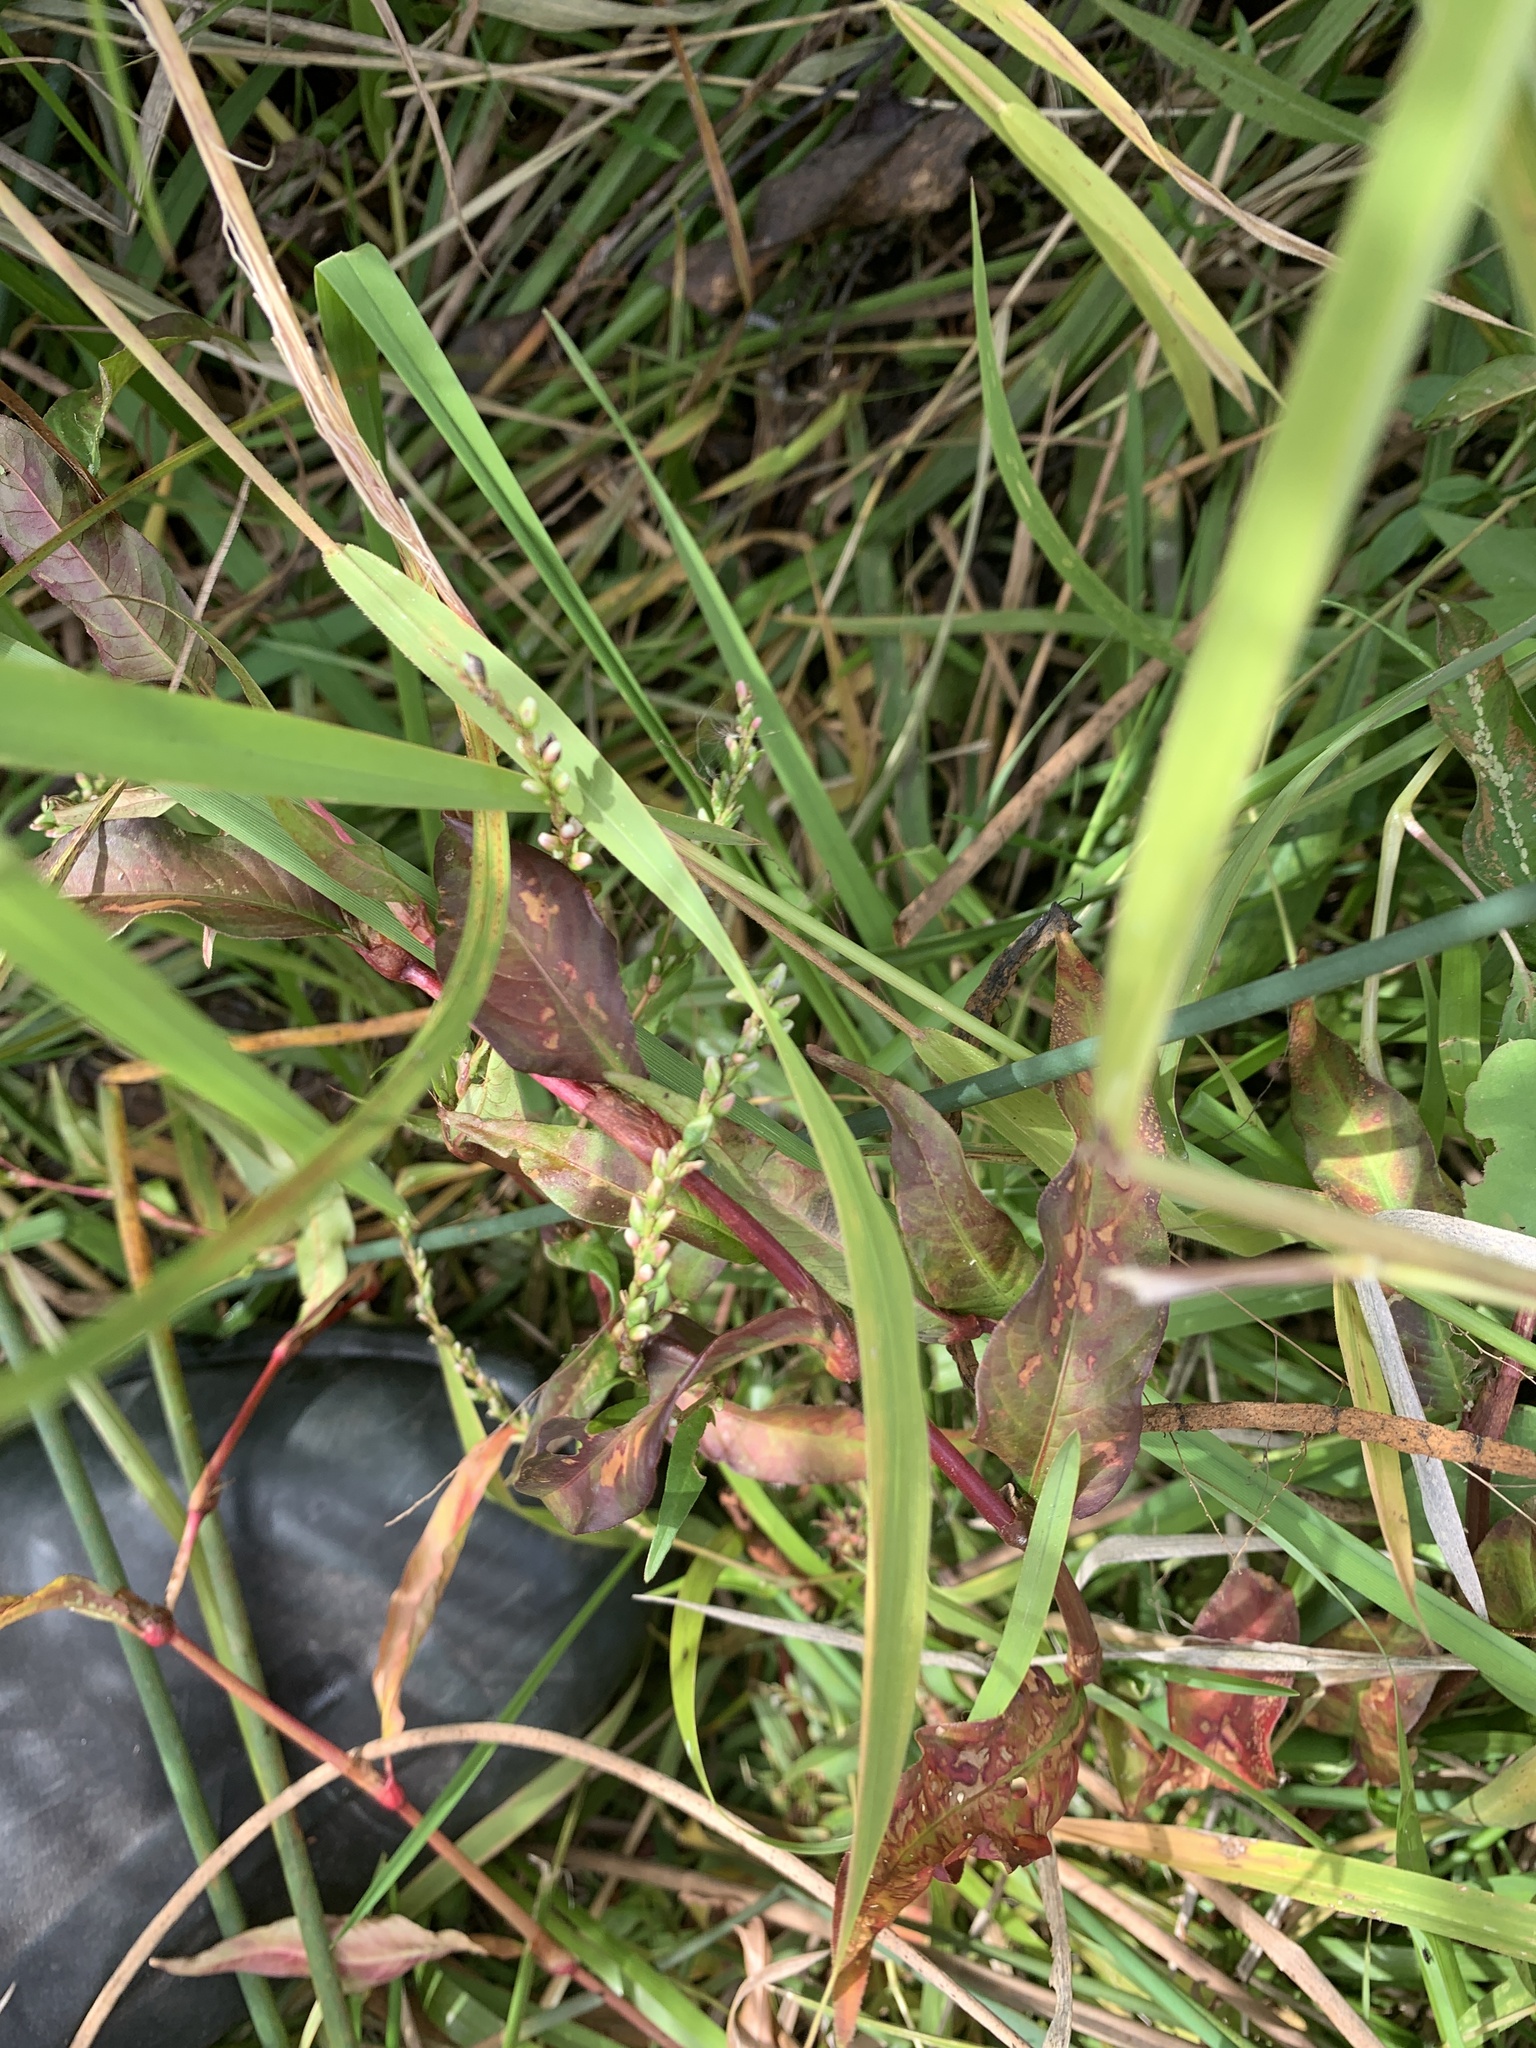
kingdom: Plantae
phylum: Tracheophyta
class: Magnoliopsida
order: Caryophyllales
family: Polygonaceae
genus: Persicaria
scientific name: Persicaria hydropiper
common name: Water-pepper
